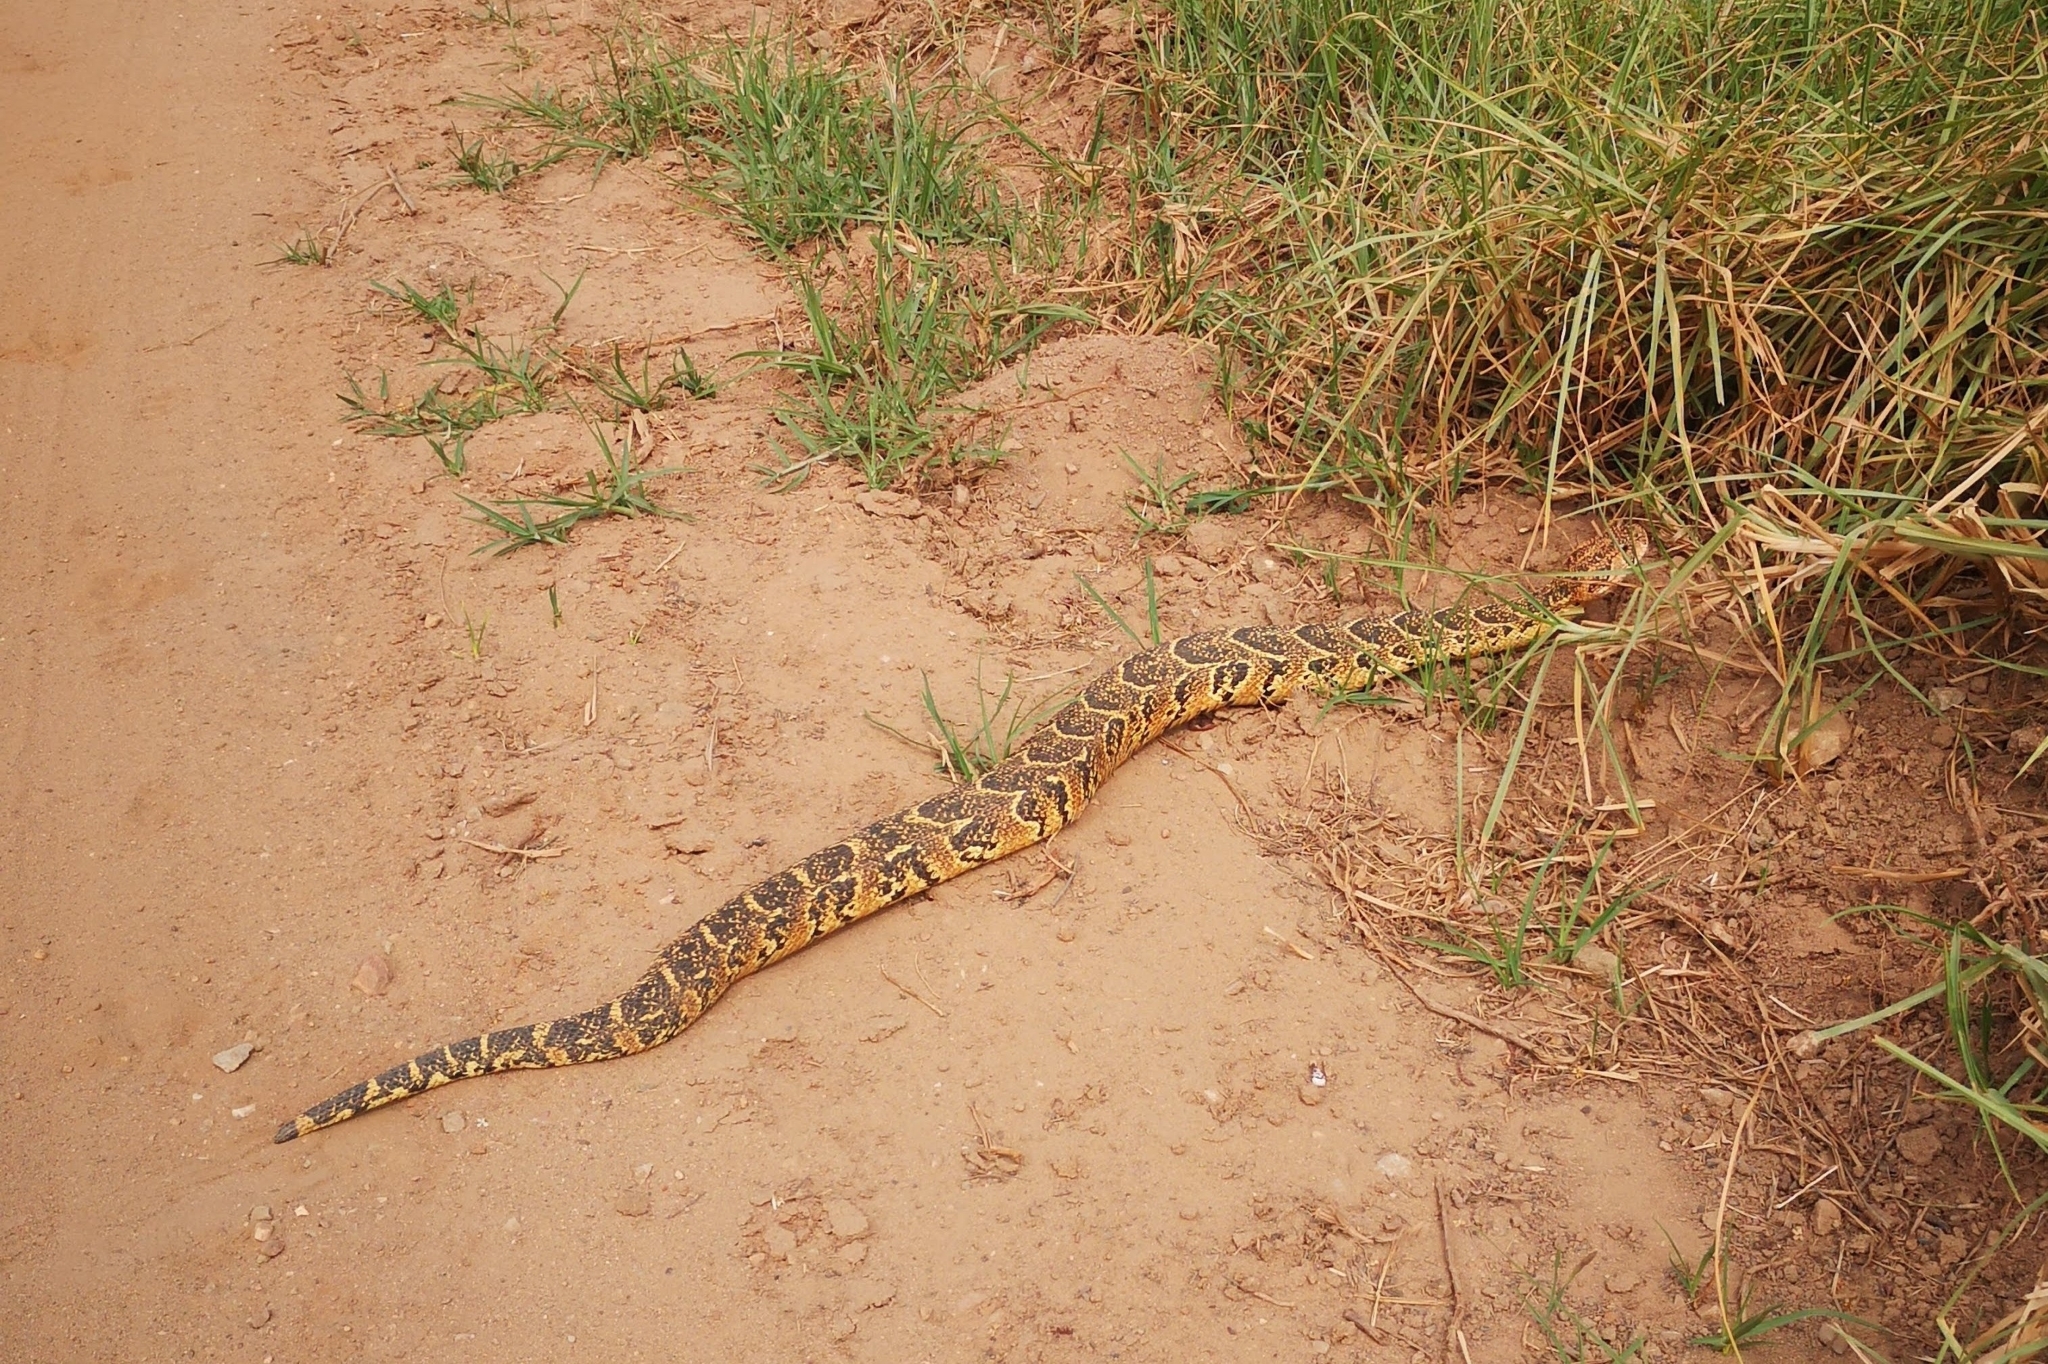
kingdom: Animalia
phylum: Chordata
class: Squamata
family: Viperidae
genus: Bitis
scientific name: Bitis arietans
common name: Puff adder
